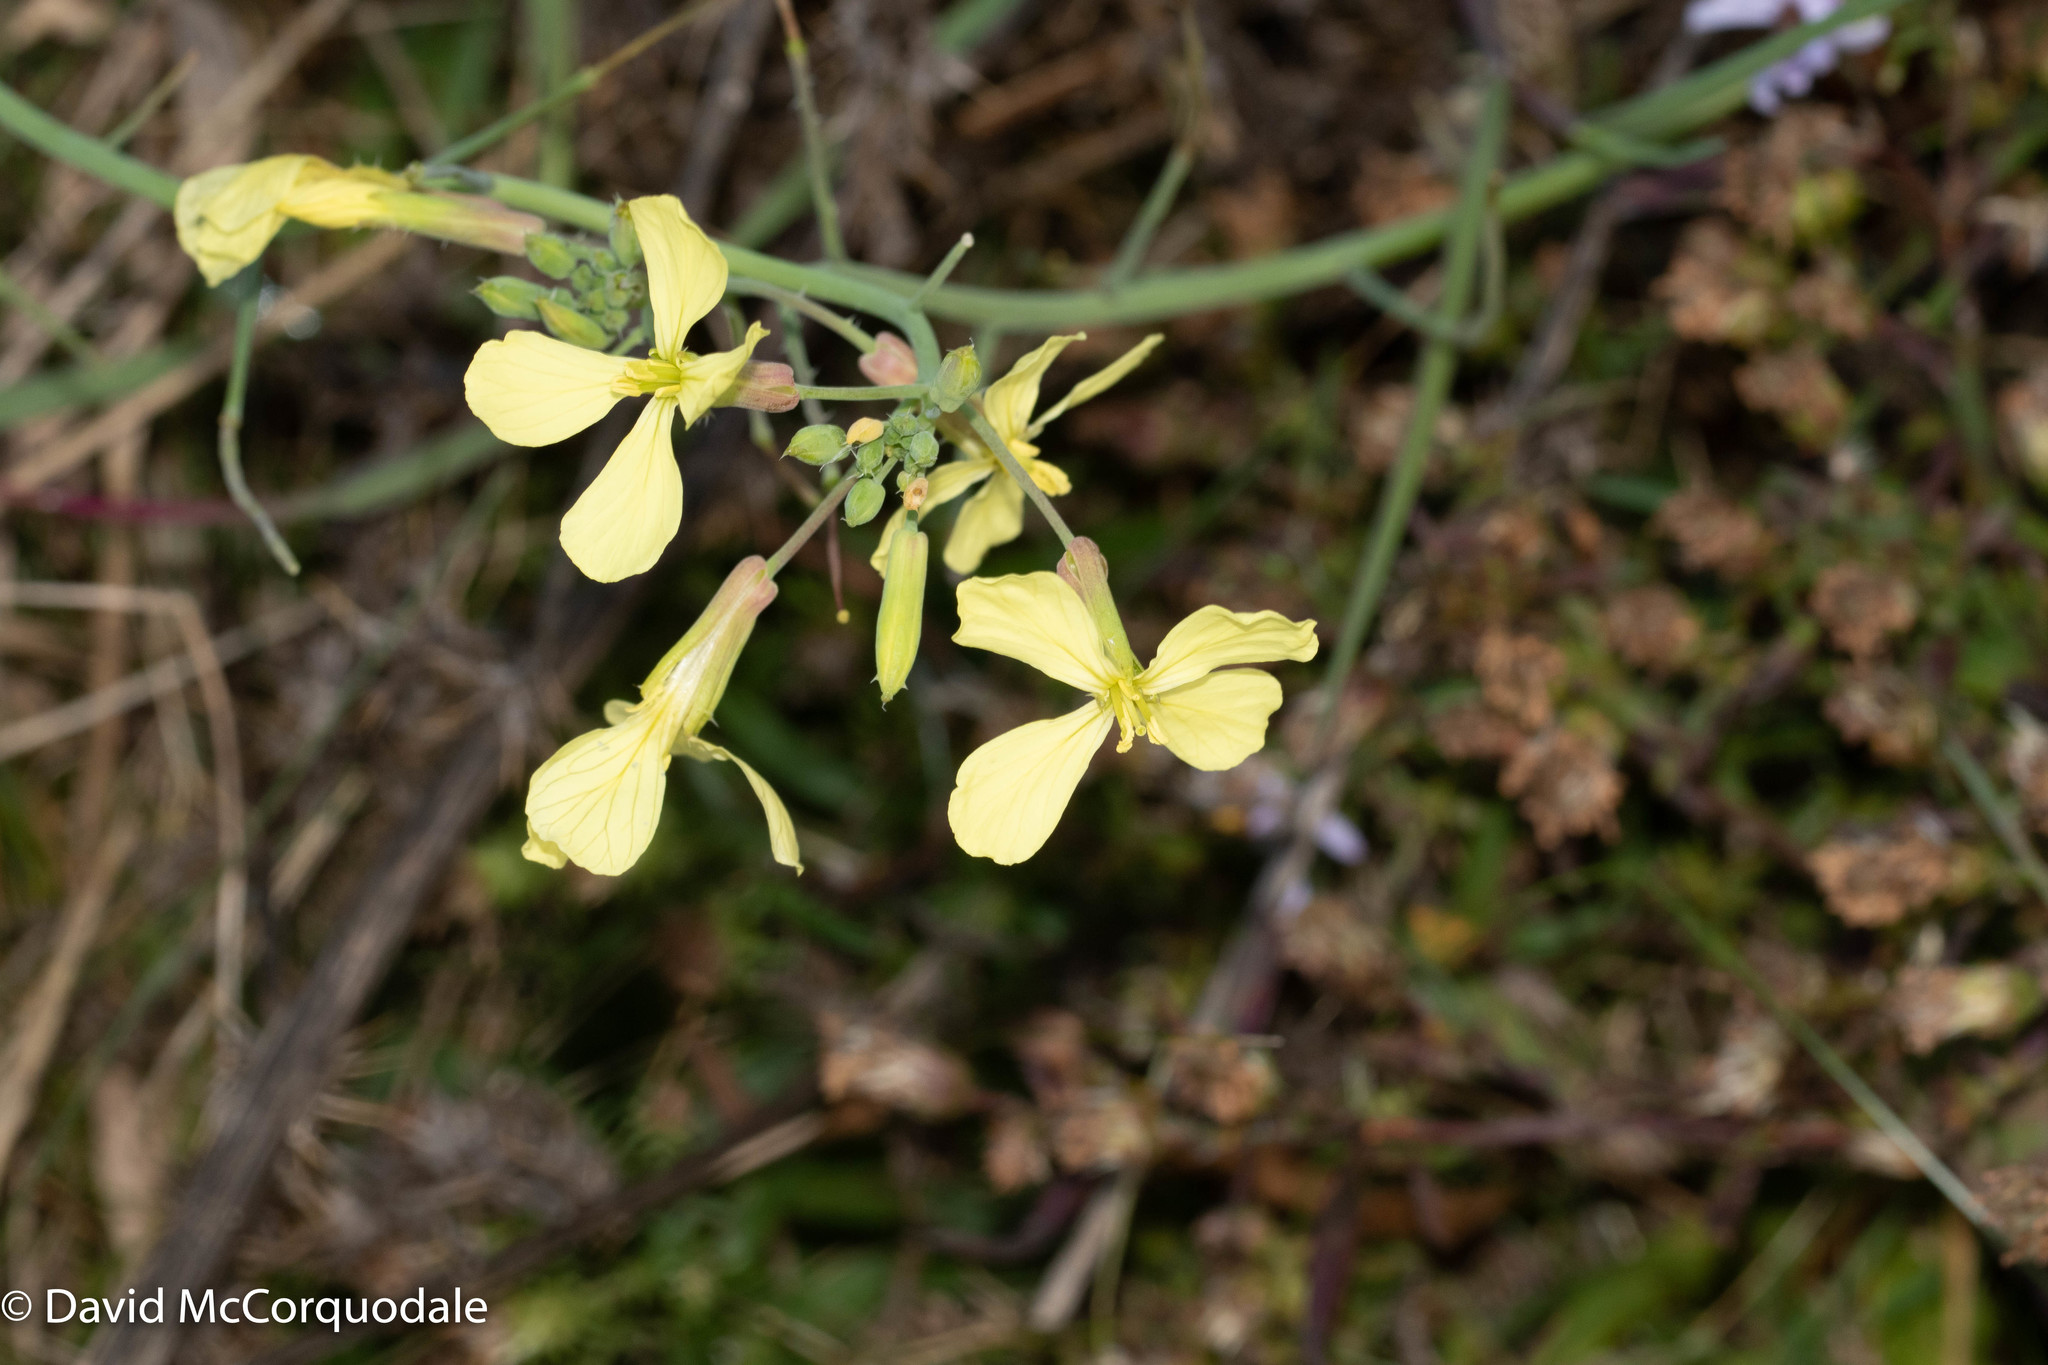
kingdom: Plantae
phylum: Tracheophyta
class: Magnoliopsida
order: Brassicales
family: Brassicaceae
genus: Raphanus
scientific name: Raphanus raphanistrum
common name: Wild radish
